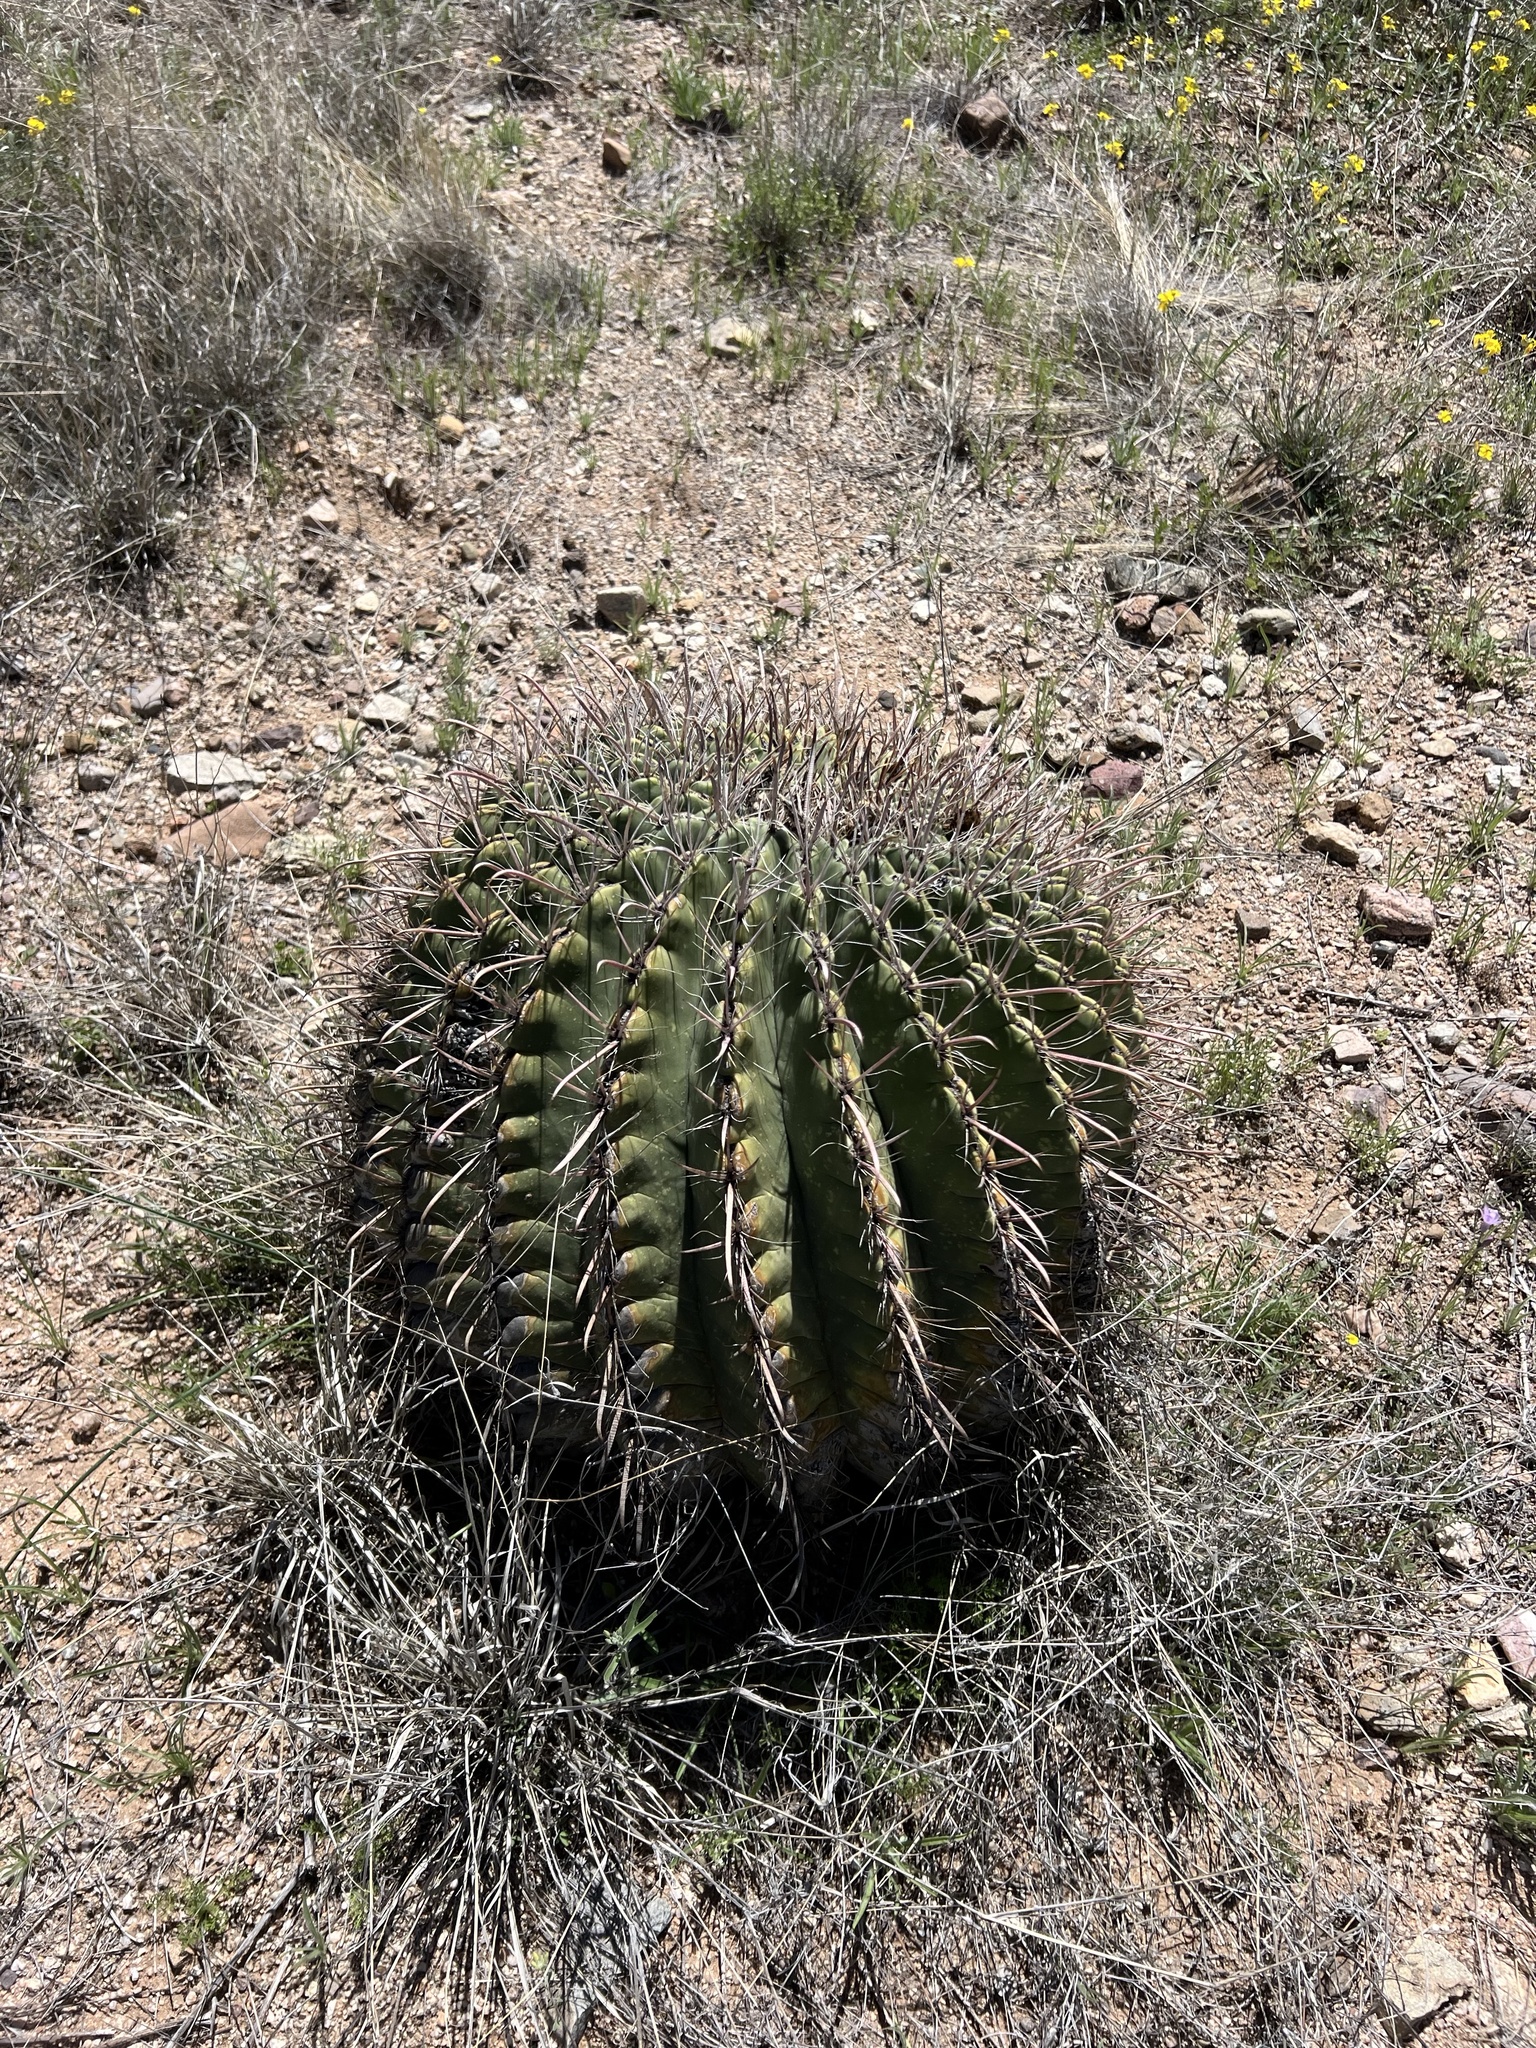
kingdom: Plantae
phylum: Tracheophyta
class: Magnoliopsida
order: Caryophyllales
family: Cactaceae
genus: Ferocactus
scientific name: Ferocactus wislizeni
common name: Candy barrel cactus
